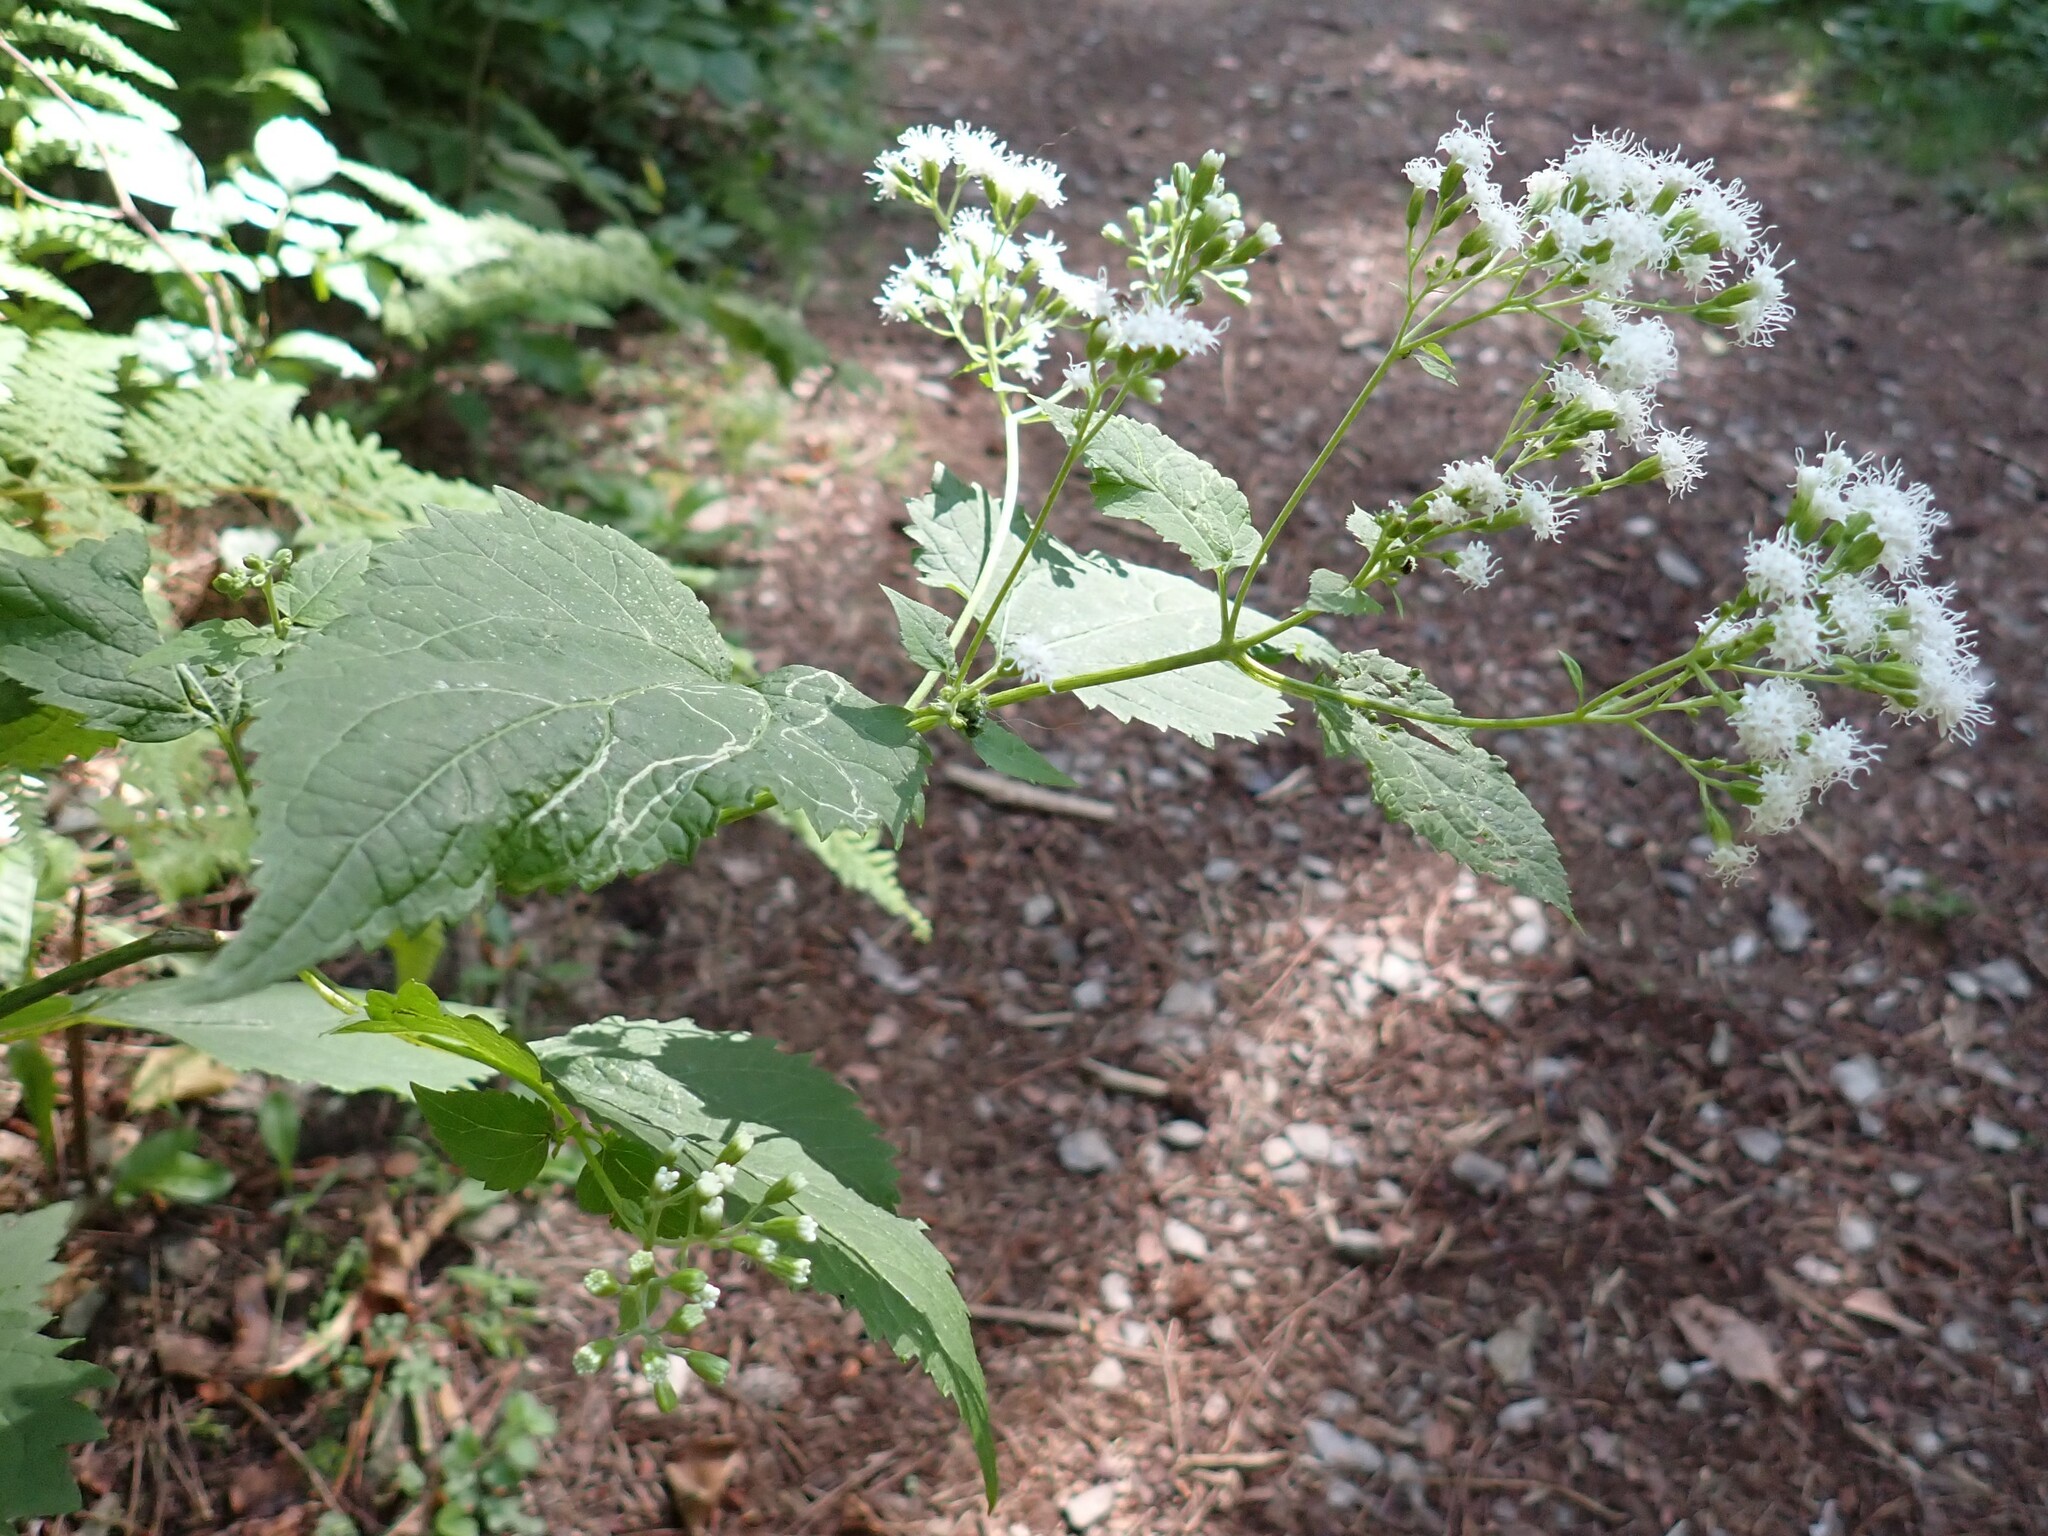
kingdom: Plantae
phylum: Tracheophyta
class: Magnoliopsida
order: Asterales
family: Asteraceae
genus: Ageratina
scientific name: Ageratina altissima
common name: White snakeroot
